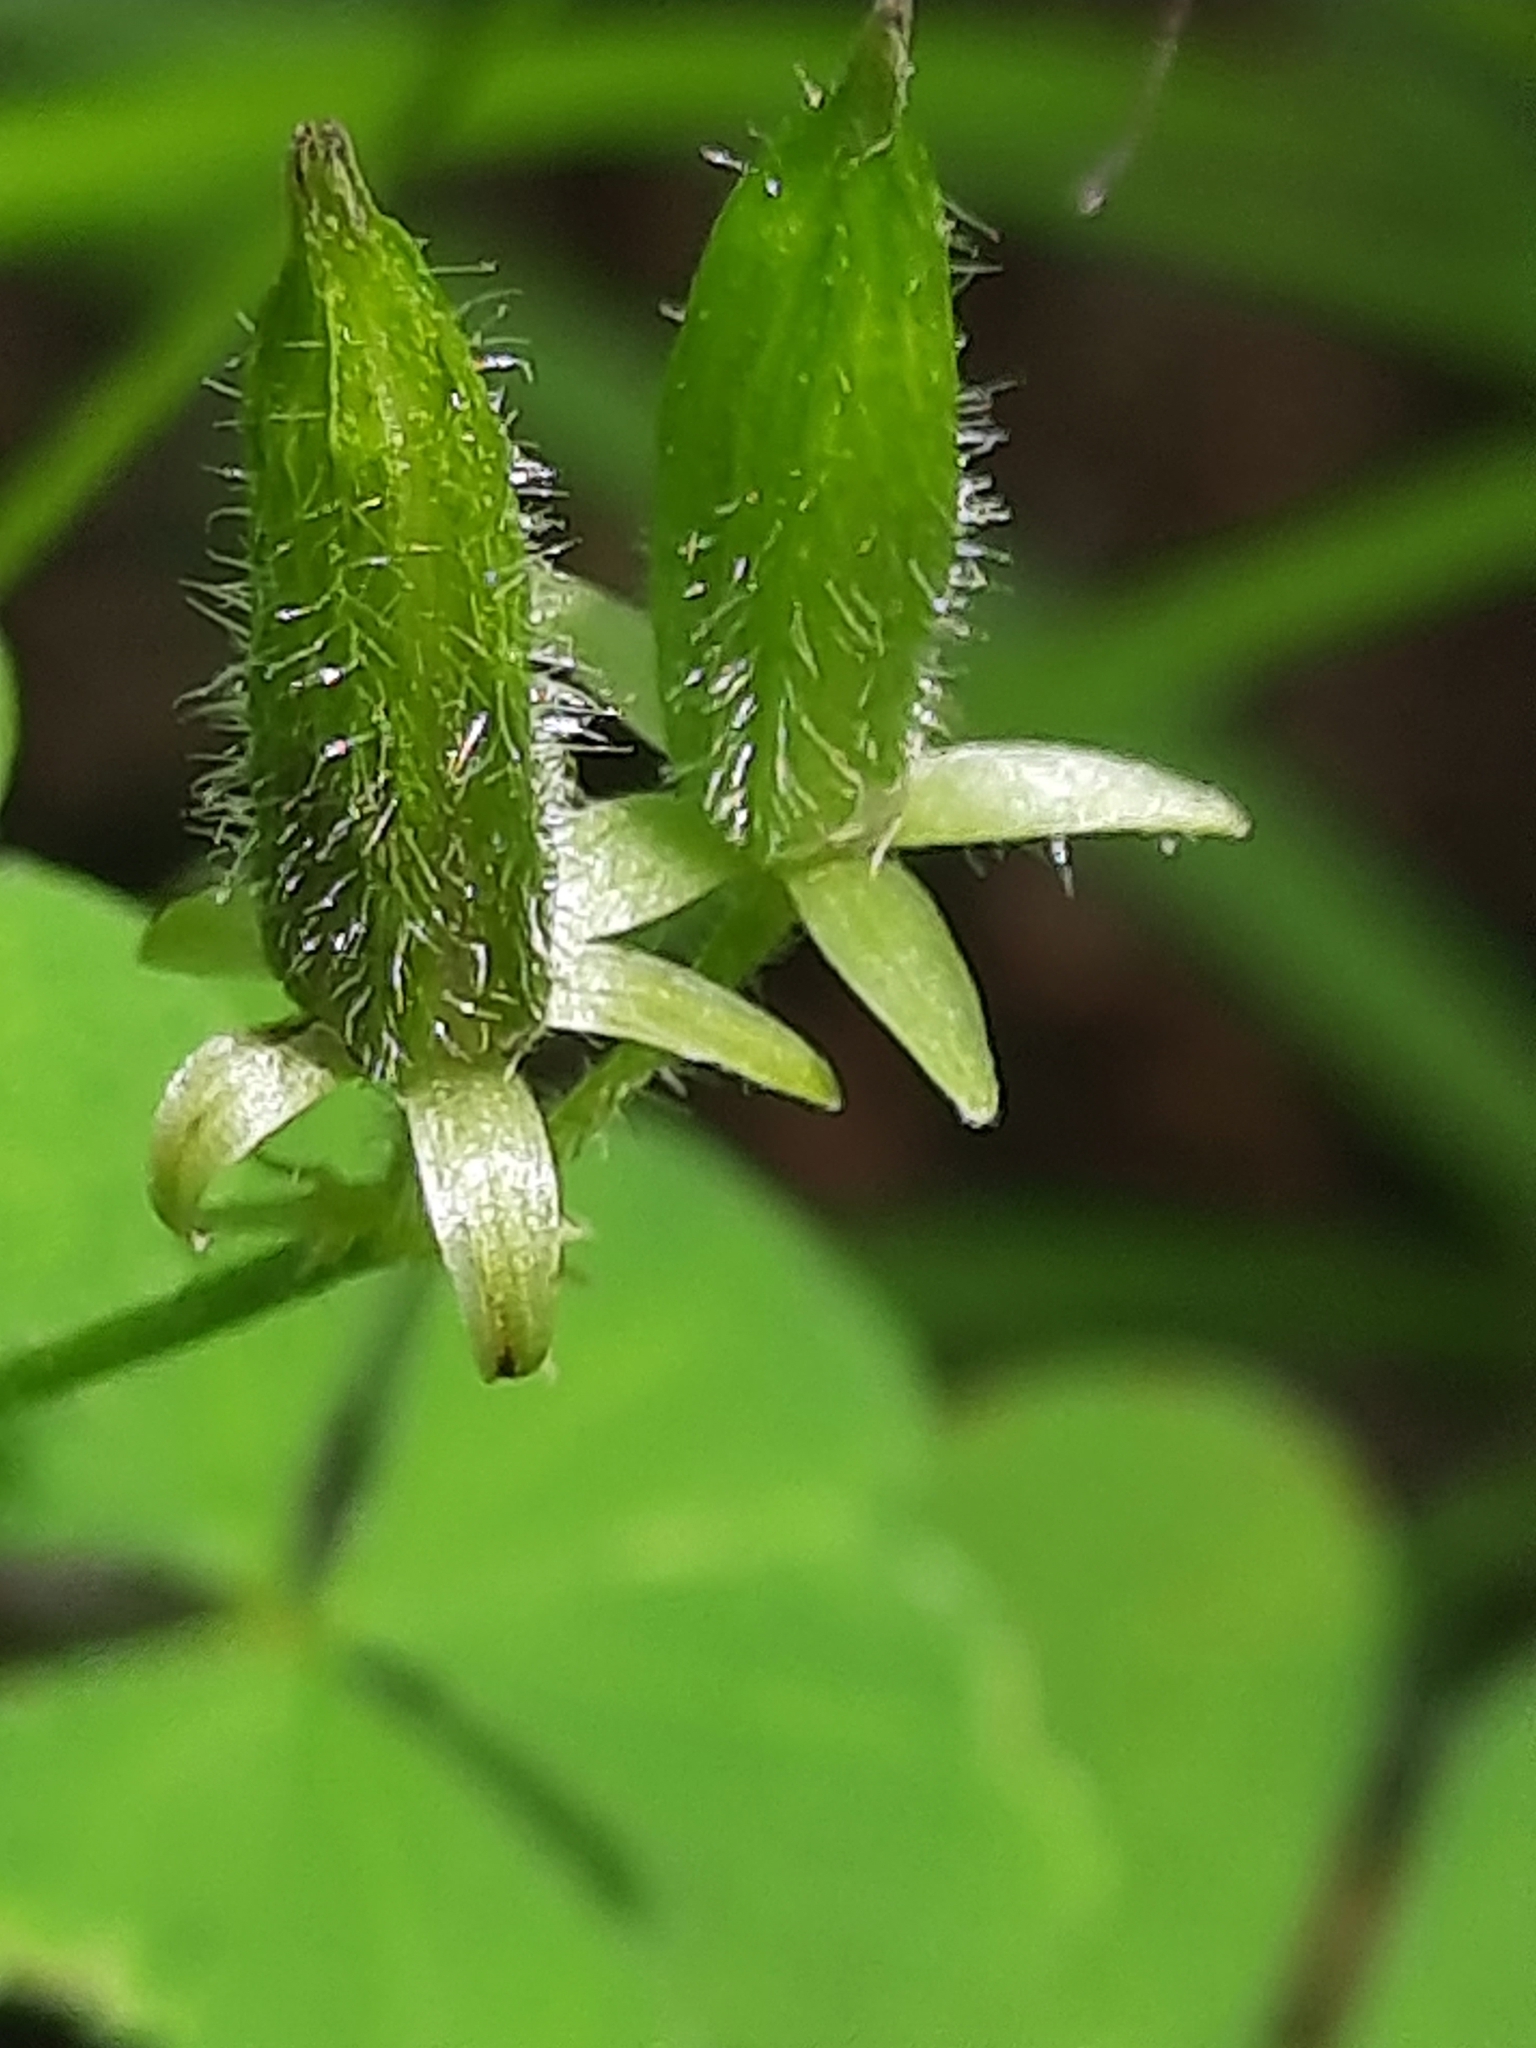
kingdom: Plantae
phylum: Tracheophyta
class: Magnoliopsida
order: Oxalidales
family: Oxalidaceae
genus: Oxalis
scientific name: Oxalis stricta
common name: Upright yellow-sorrel
